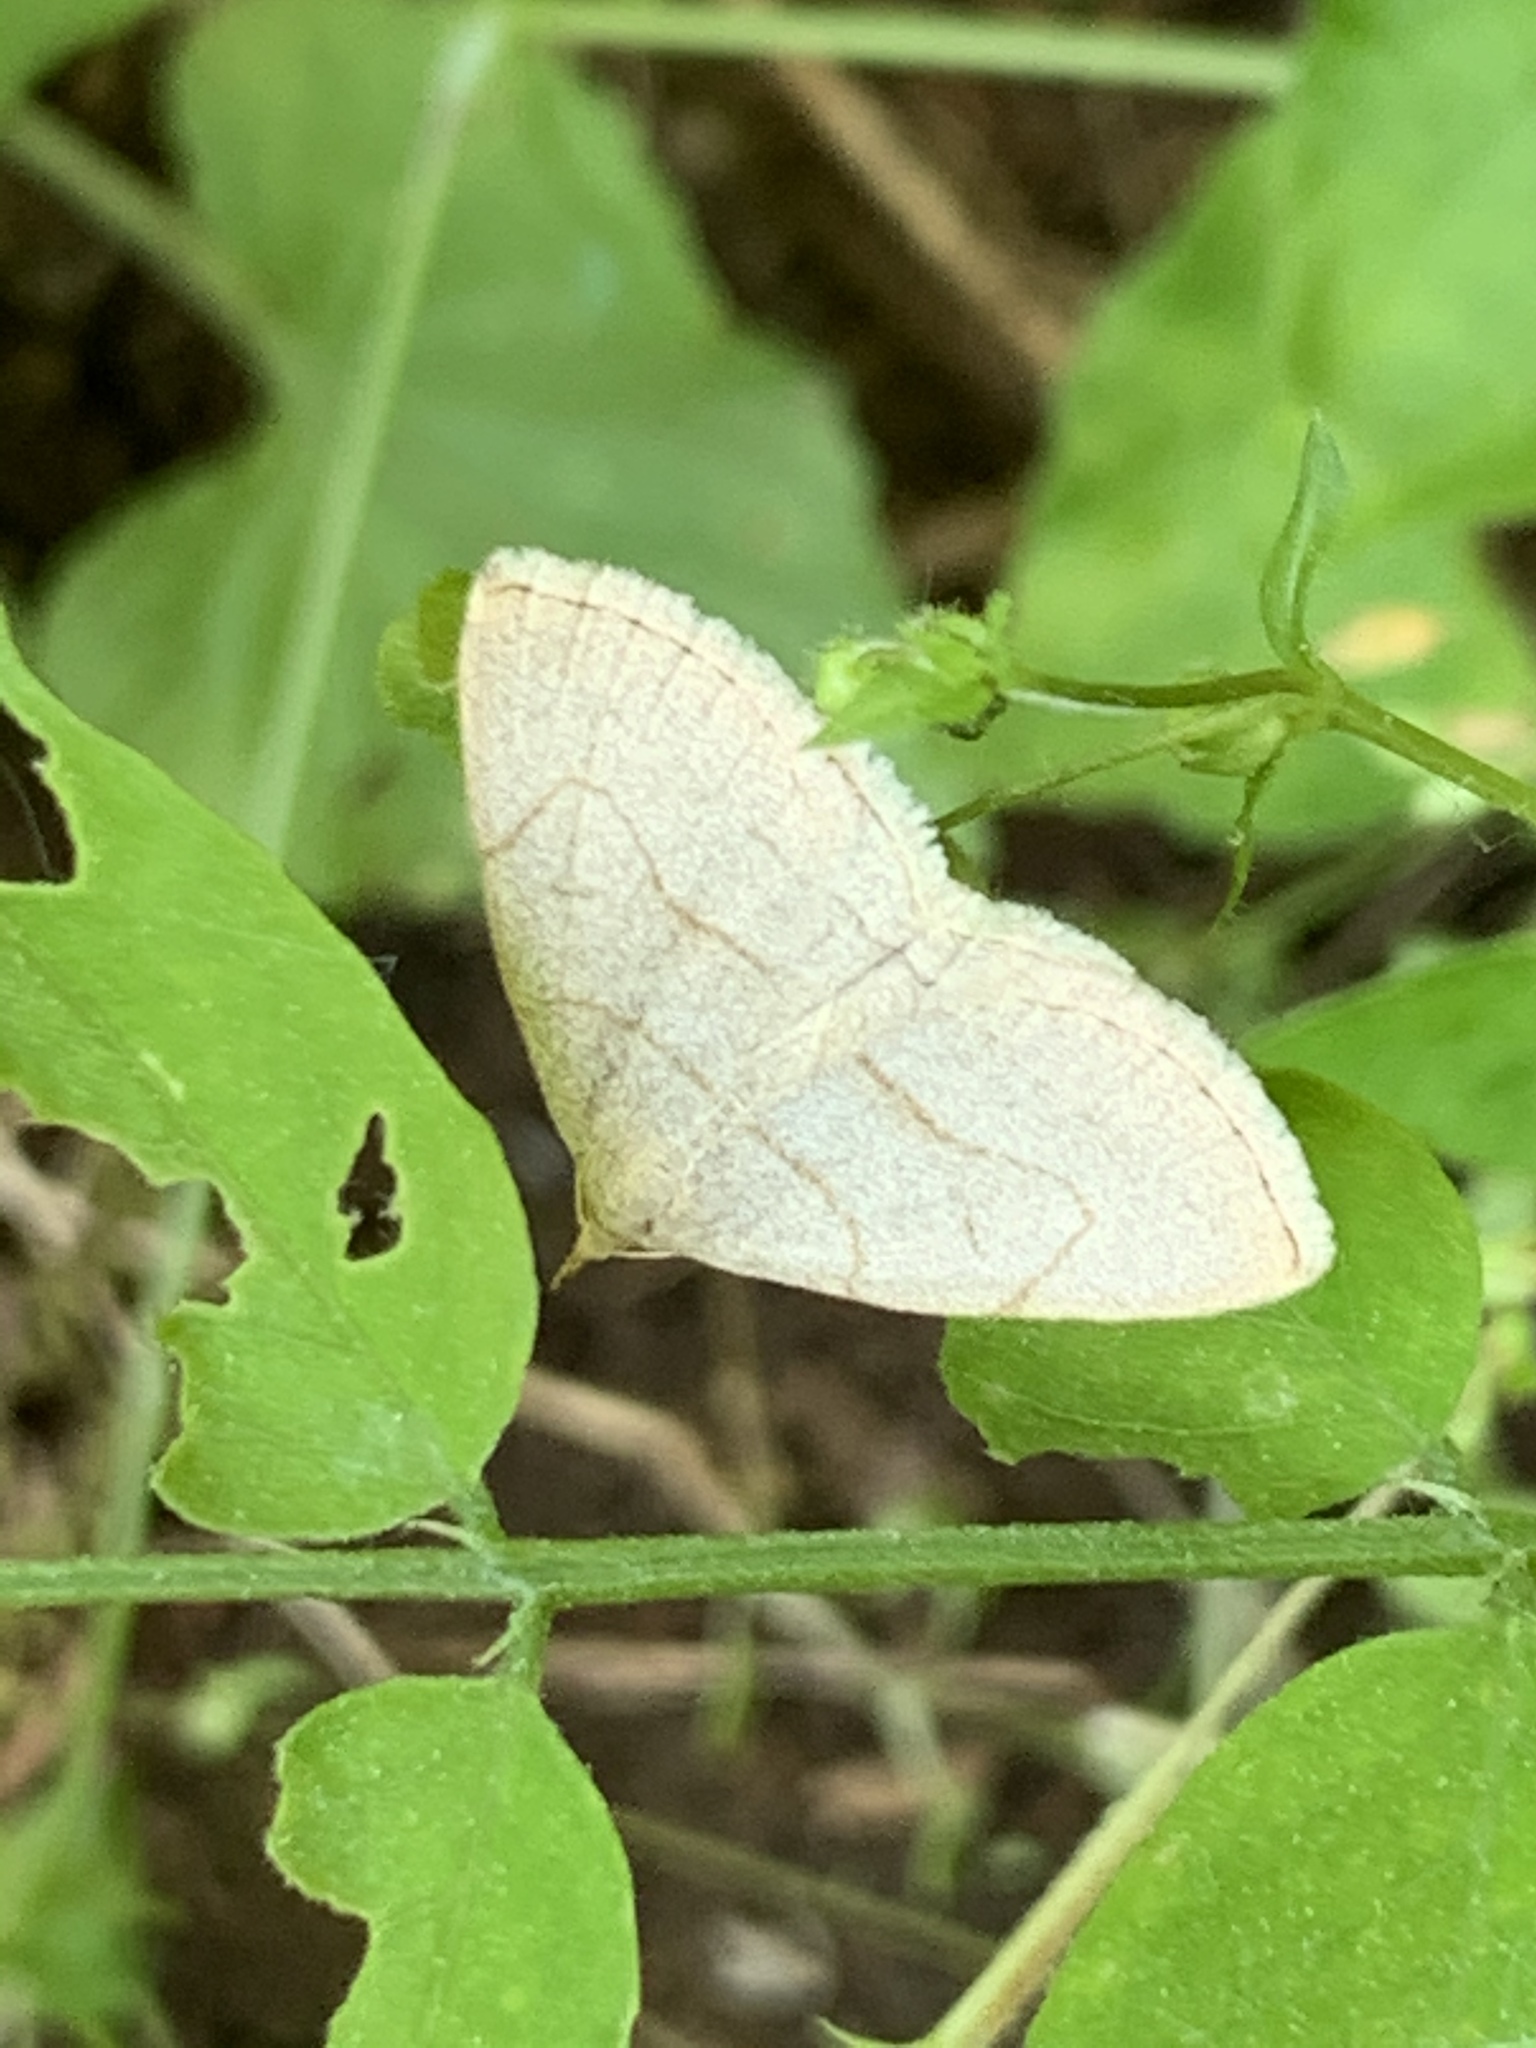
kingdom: Animalia
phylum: Arthropoda
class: Insecta
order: Lepidoptera
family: Erebidae
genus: Zanclognatha
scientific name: Zanclognatha pedipilalis
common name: Grayish fan-foot
